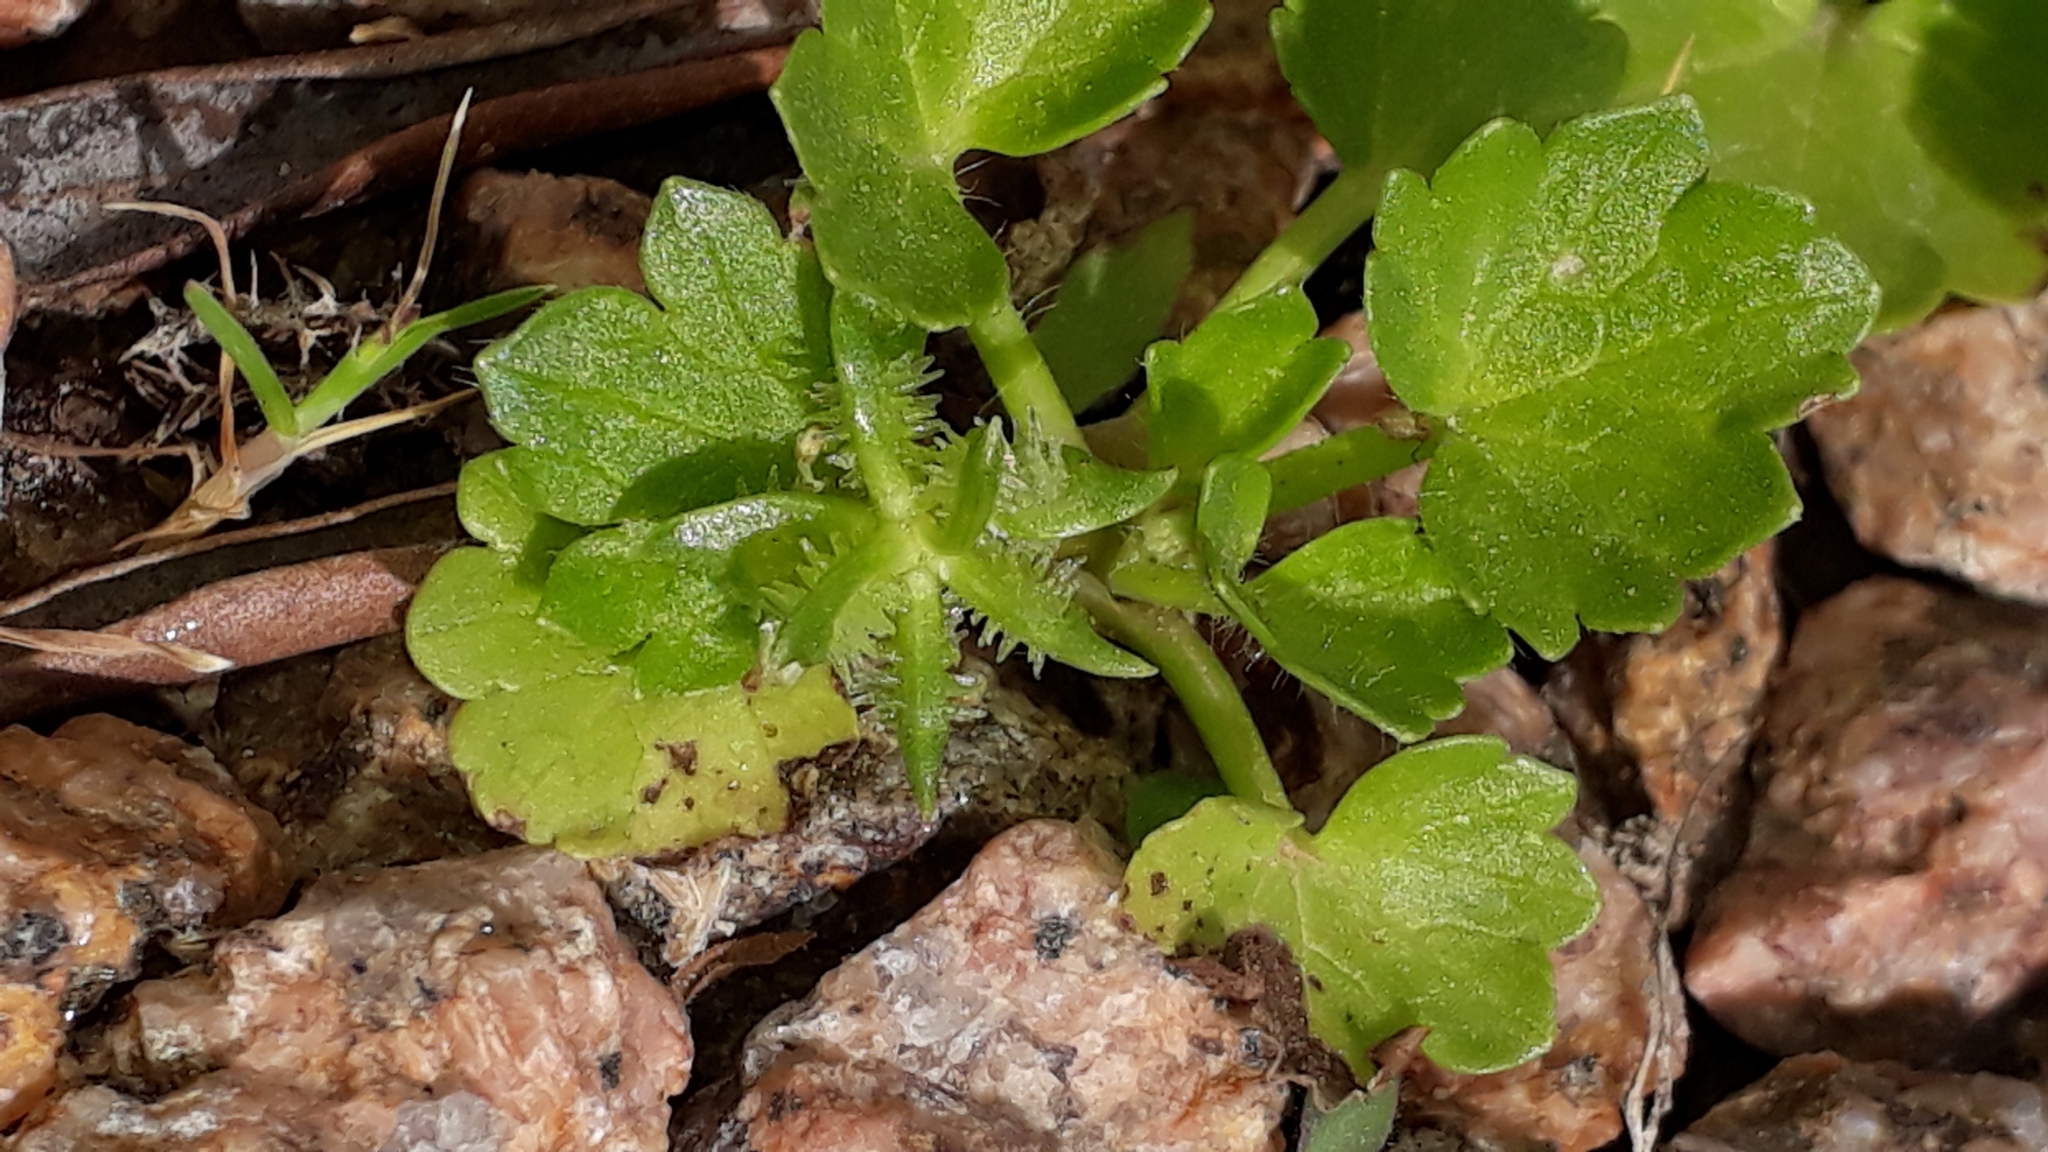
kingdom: Plantae
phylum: Tracheophyta
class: Magnoliopsida
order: Ranunculales
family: Ranunculaceae
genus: Ranunculus
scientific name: Ranunculus muricatus
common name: Rough-fruited buttercup
